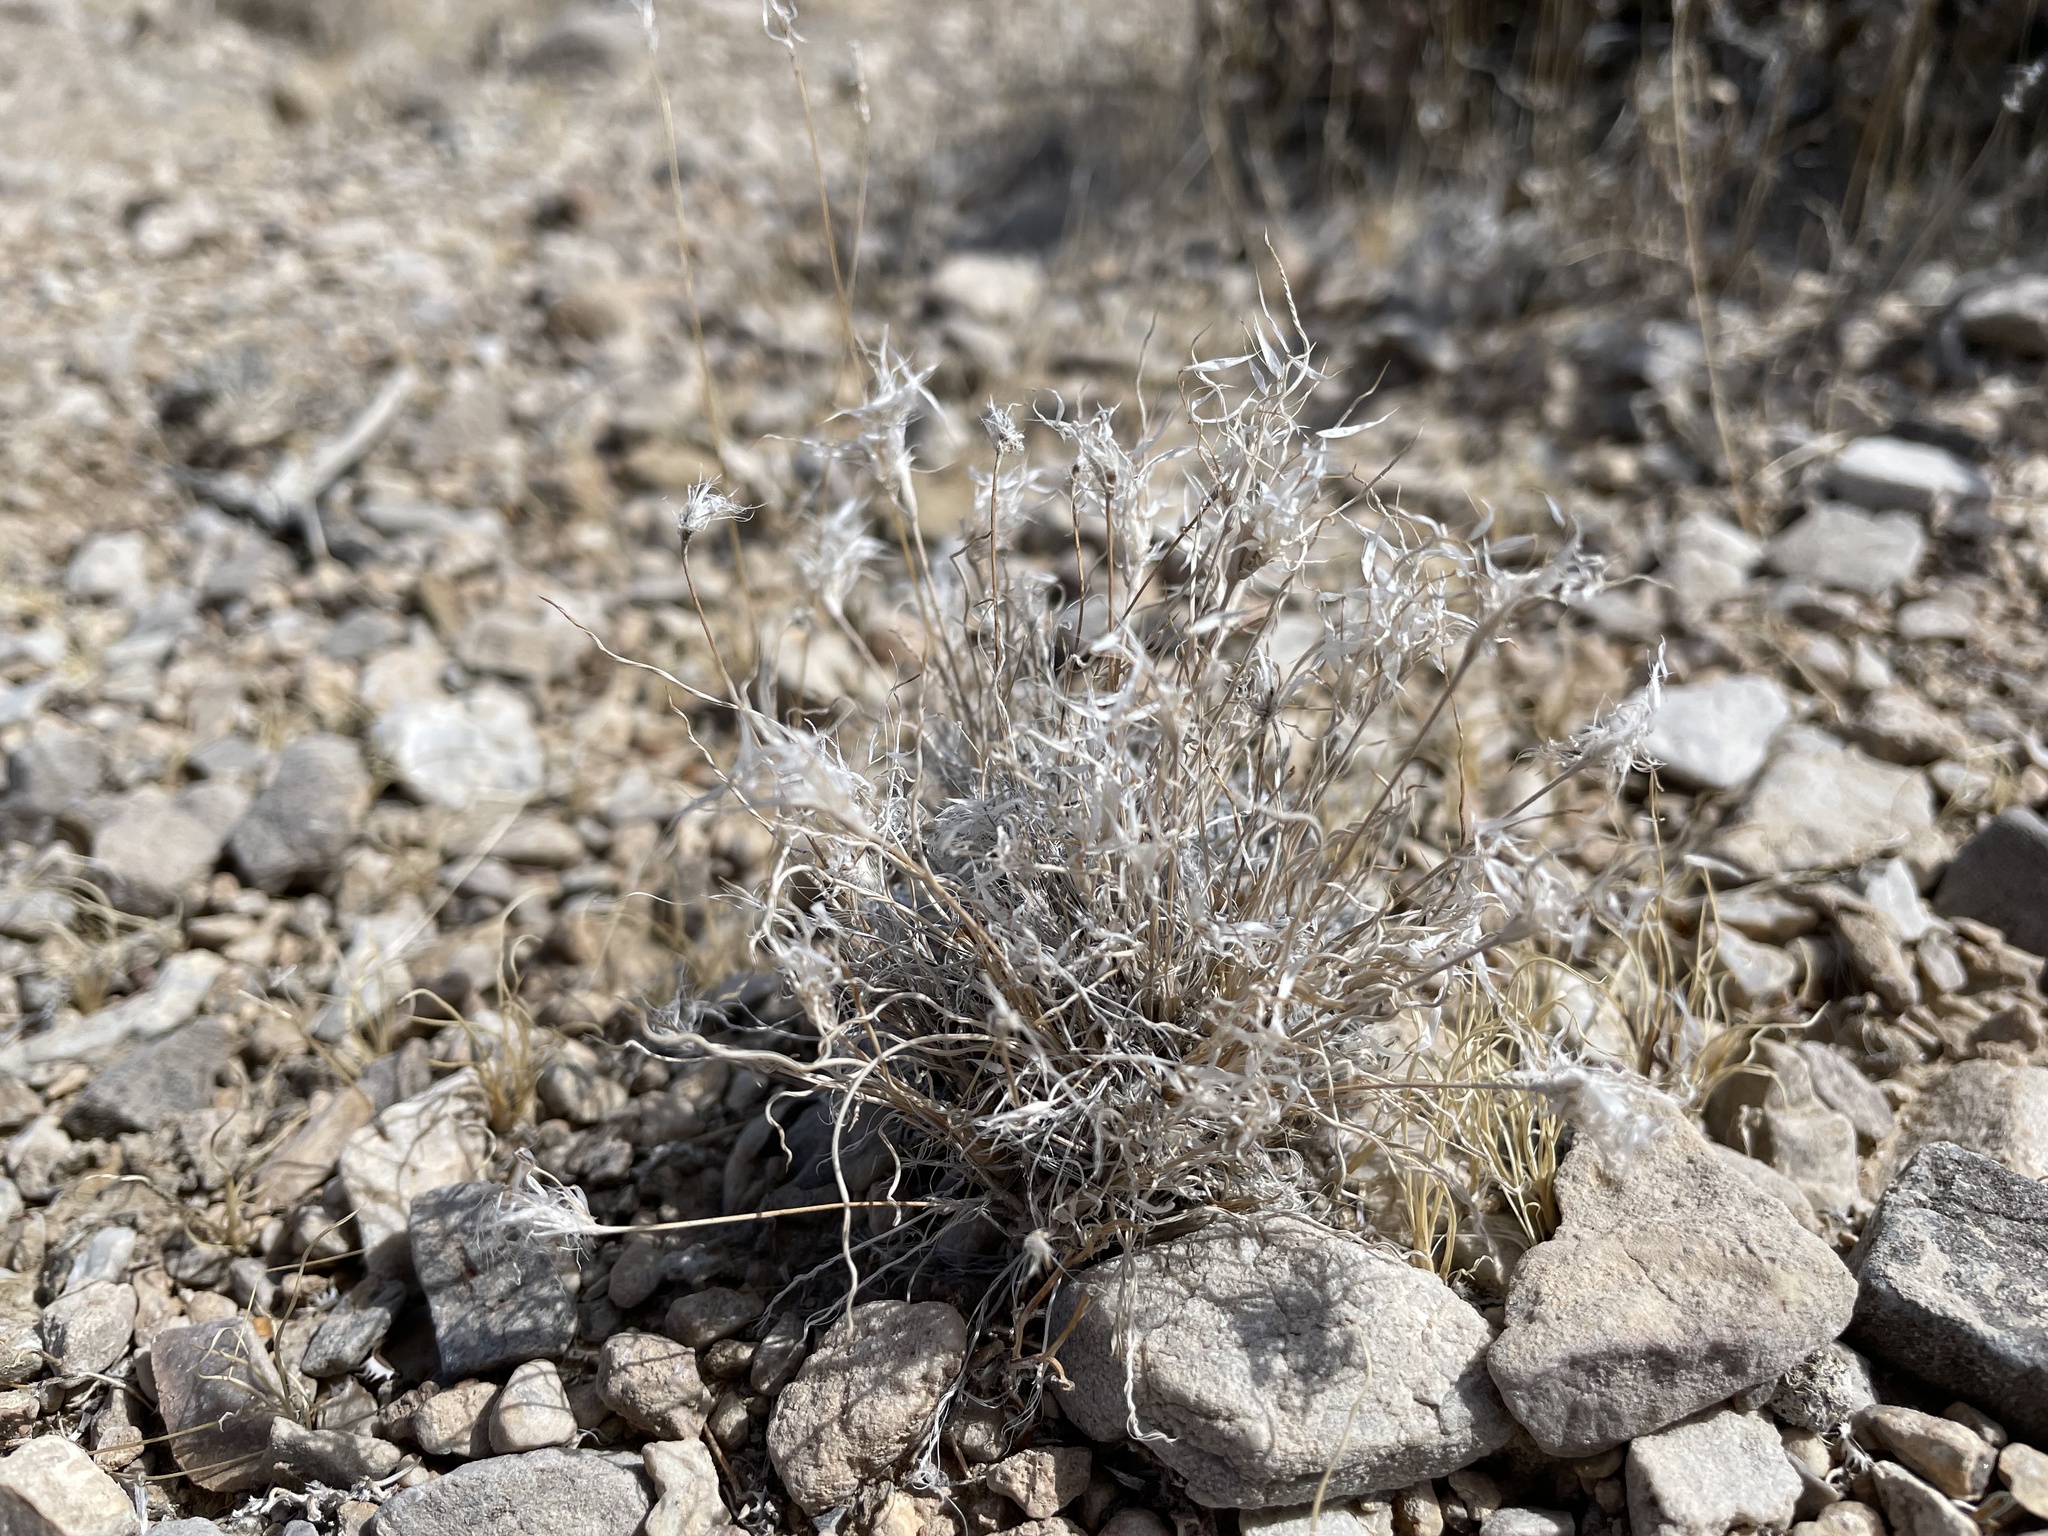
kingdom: Plantae
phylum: Tracheophyta
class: Liliopsida
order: Poales
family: Poaceae
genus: Dasyochloa
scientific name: Dasyochloa pulchella
